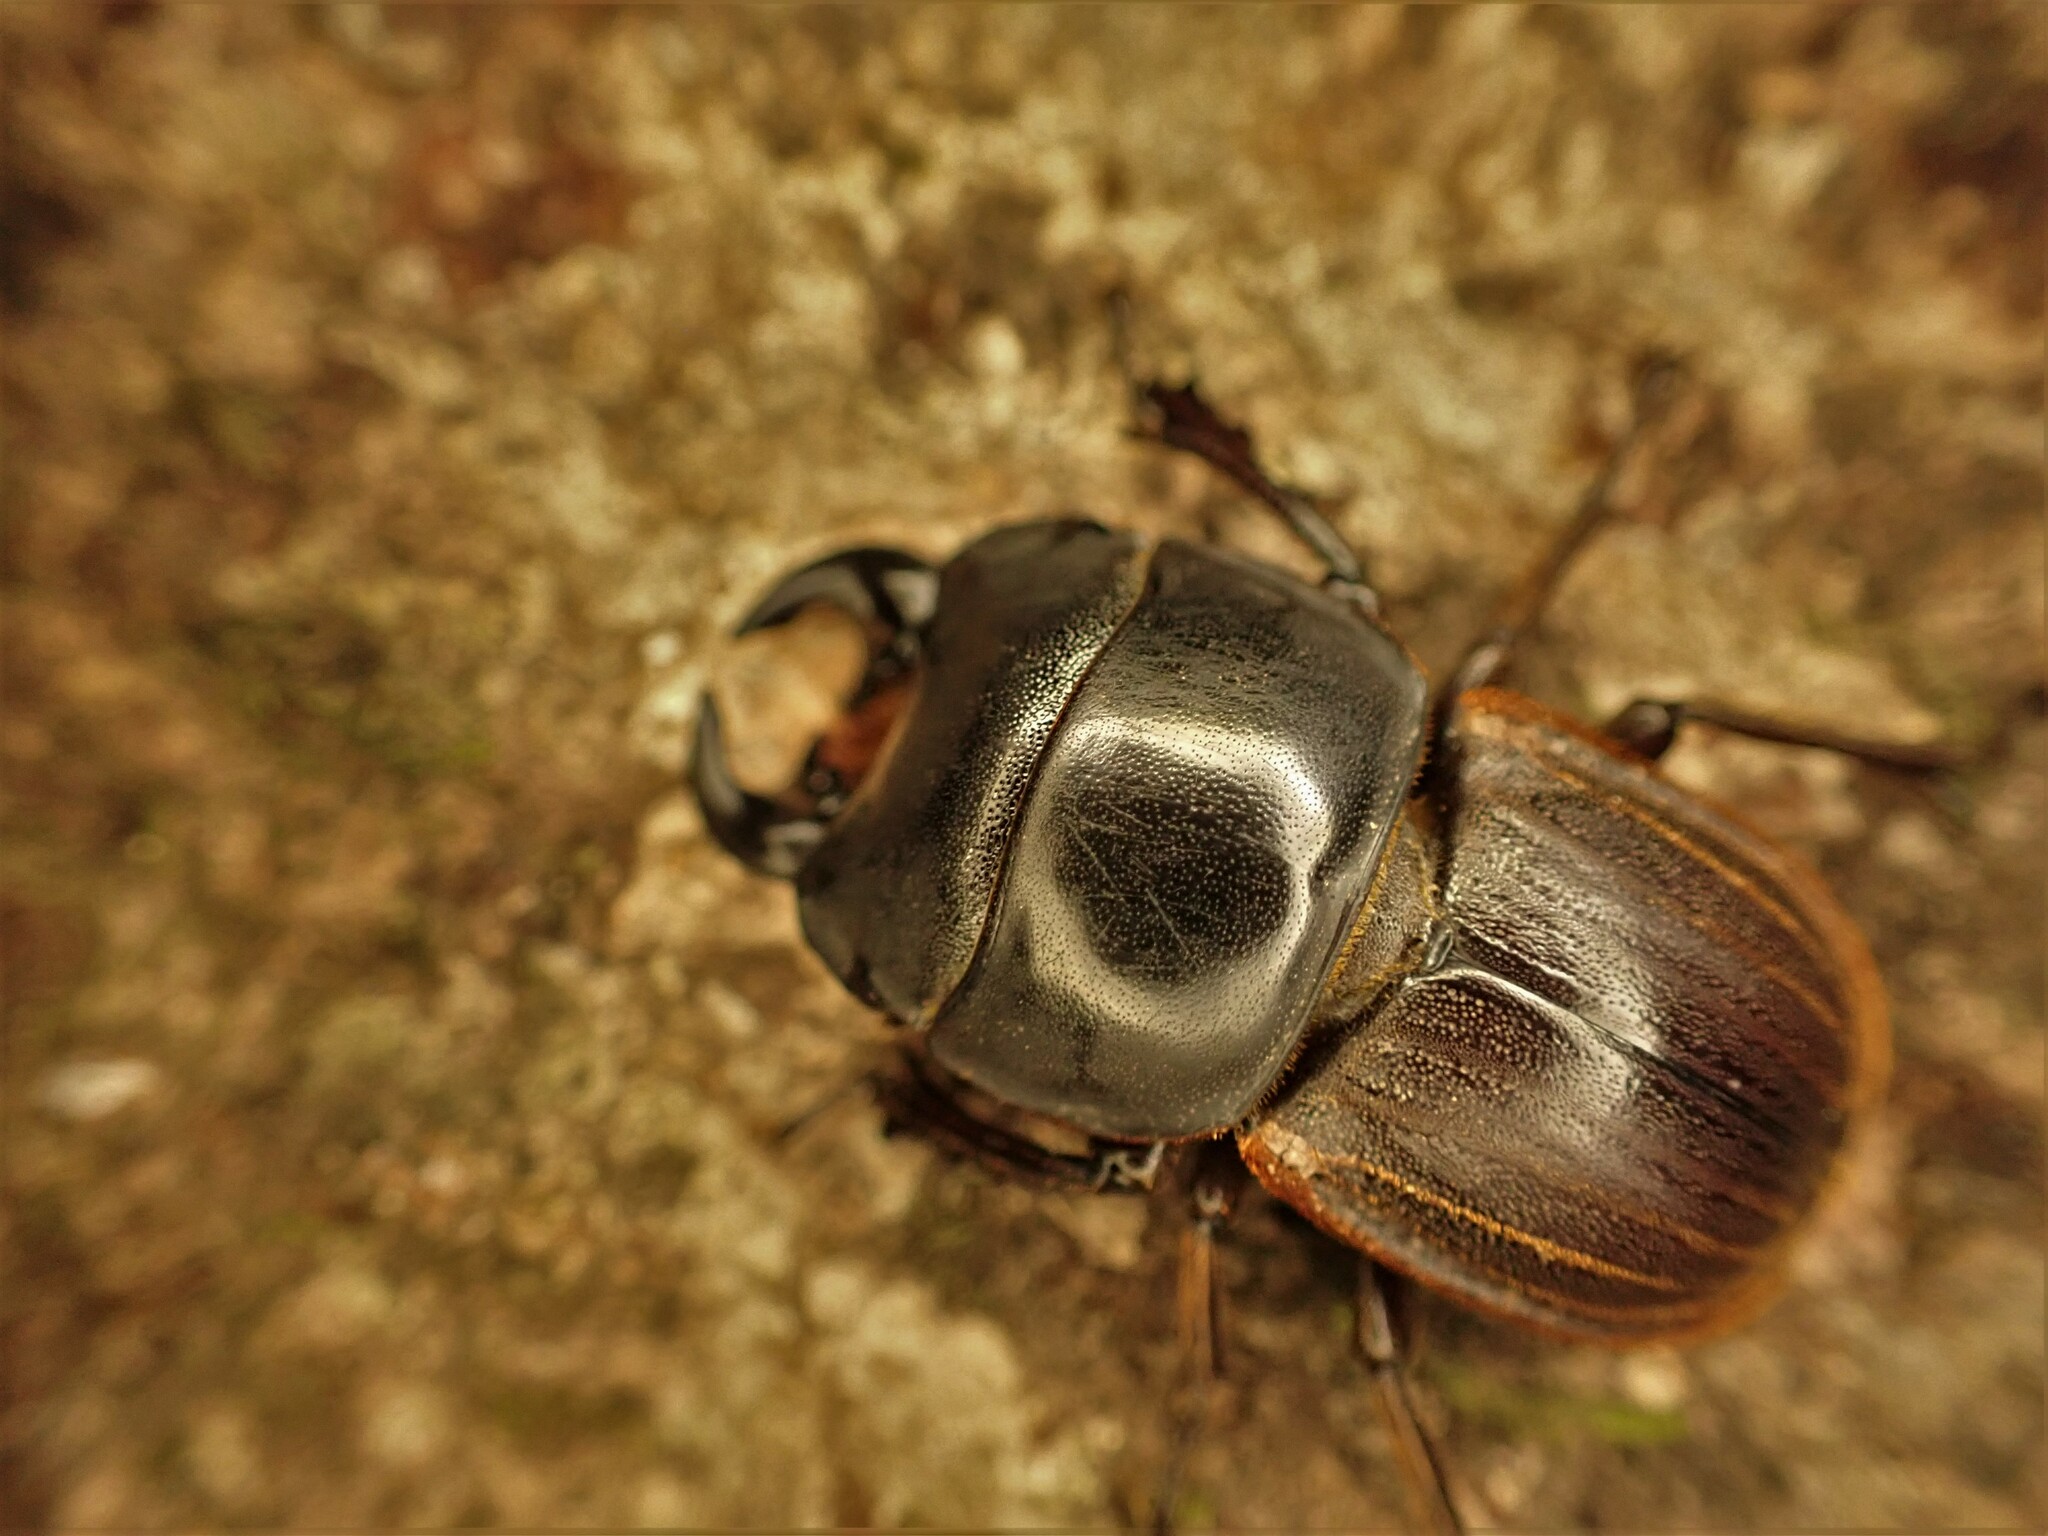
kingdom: Animalia
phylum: Arthropoda
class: Insecta
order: Coleoptera
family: Lucanidae
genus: Geodorcus
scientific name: Geodorcus helmsi
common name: Helm's stag beetle
